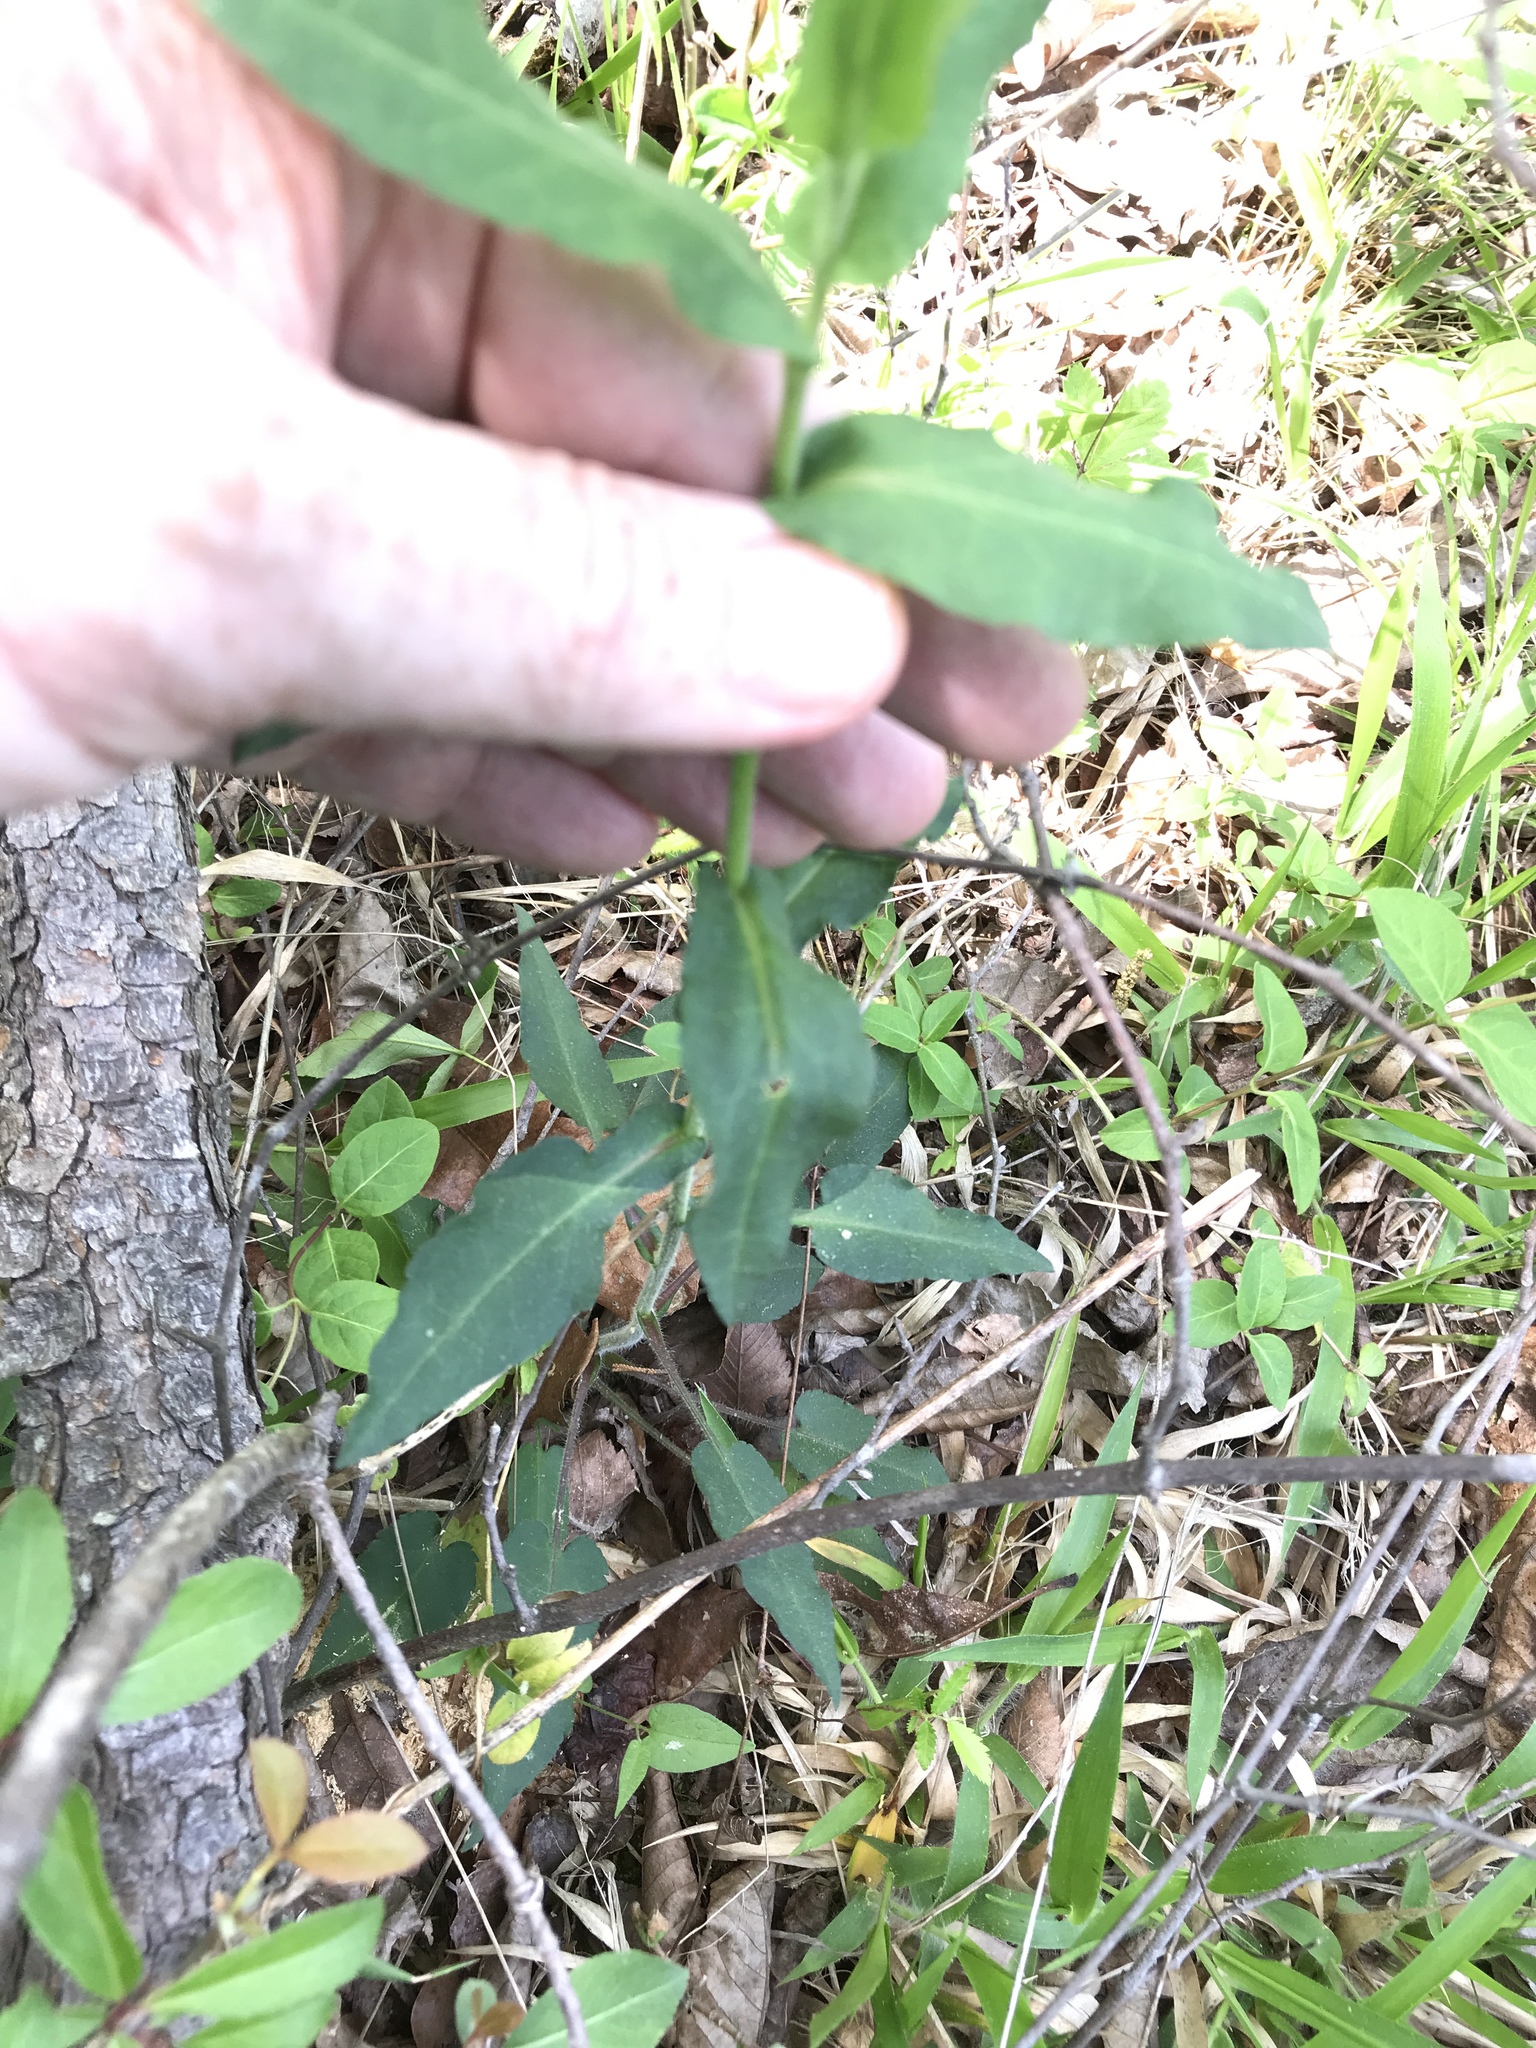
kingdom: Plantae
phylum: Tracheophyta
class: Magnoliopsida
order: Asterales
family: Asteraceae
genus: Symphyotrichum
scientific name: Symphyotrichum undulatum
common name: Clasping heart-leaf aster
